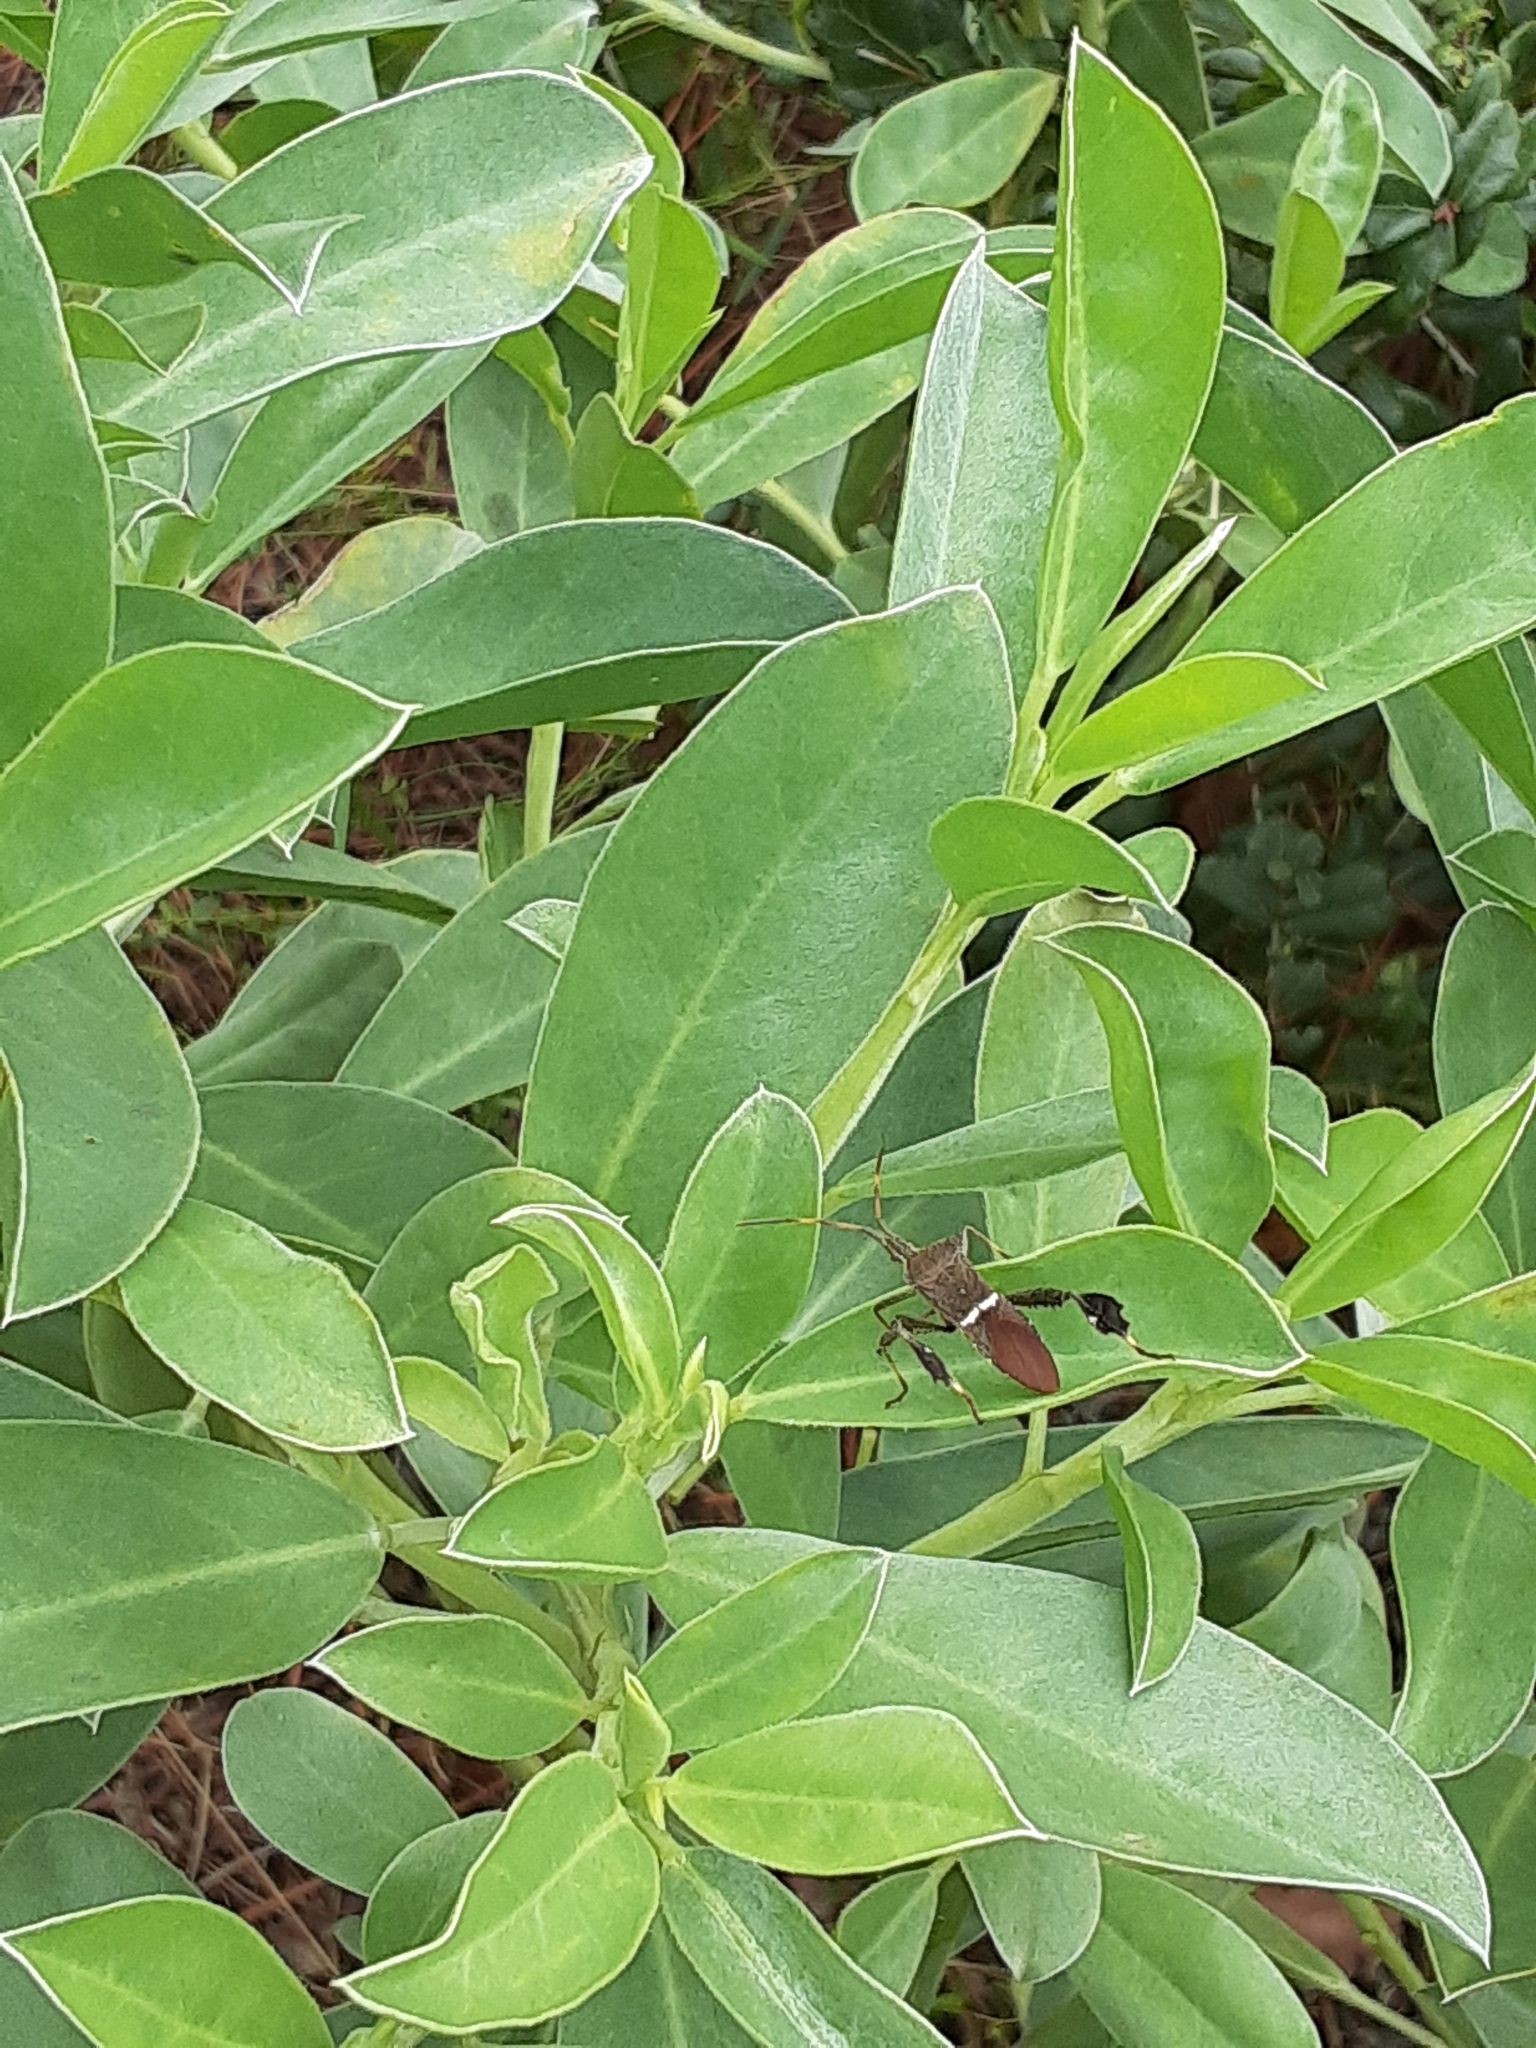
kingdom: Animalia
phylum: Arthropoda
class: Insecta
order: Hemiptera
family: Coreidae
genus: Leptoglossus
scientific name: Leptoglossus phyllopus
